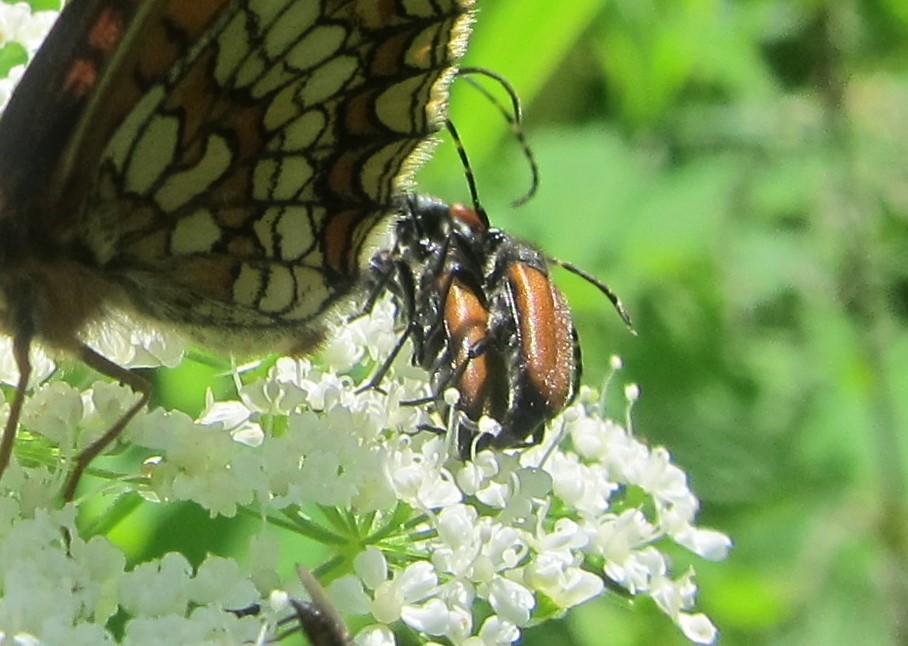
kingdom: Animalia
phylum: Arthropoda
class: Insecta
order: Coleoptera
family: Cerambycidae
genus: Paracorymbia
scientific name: Paracorymbia maculicornis
